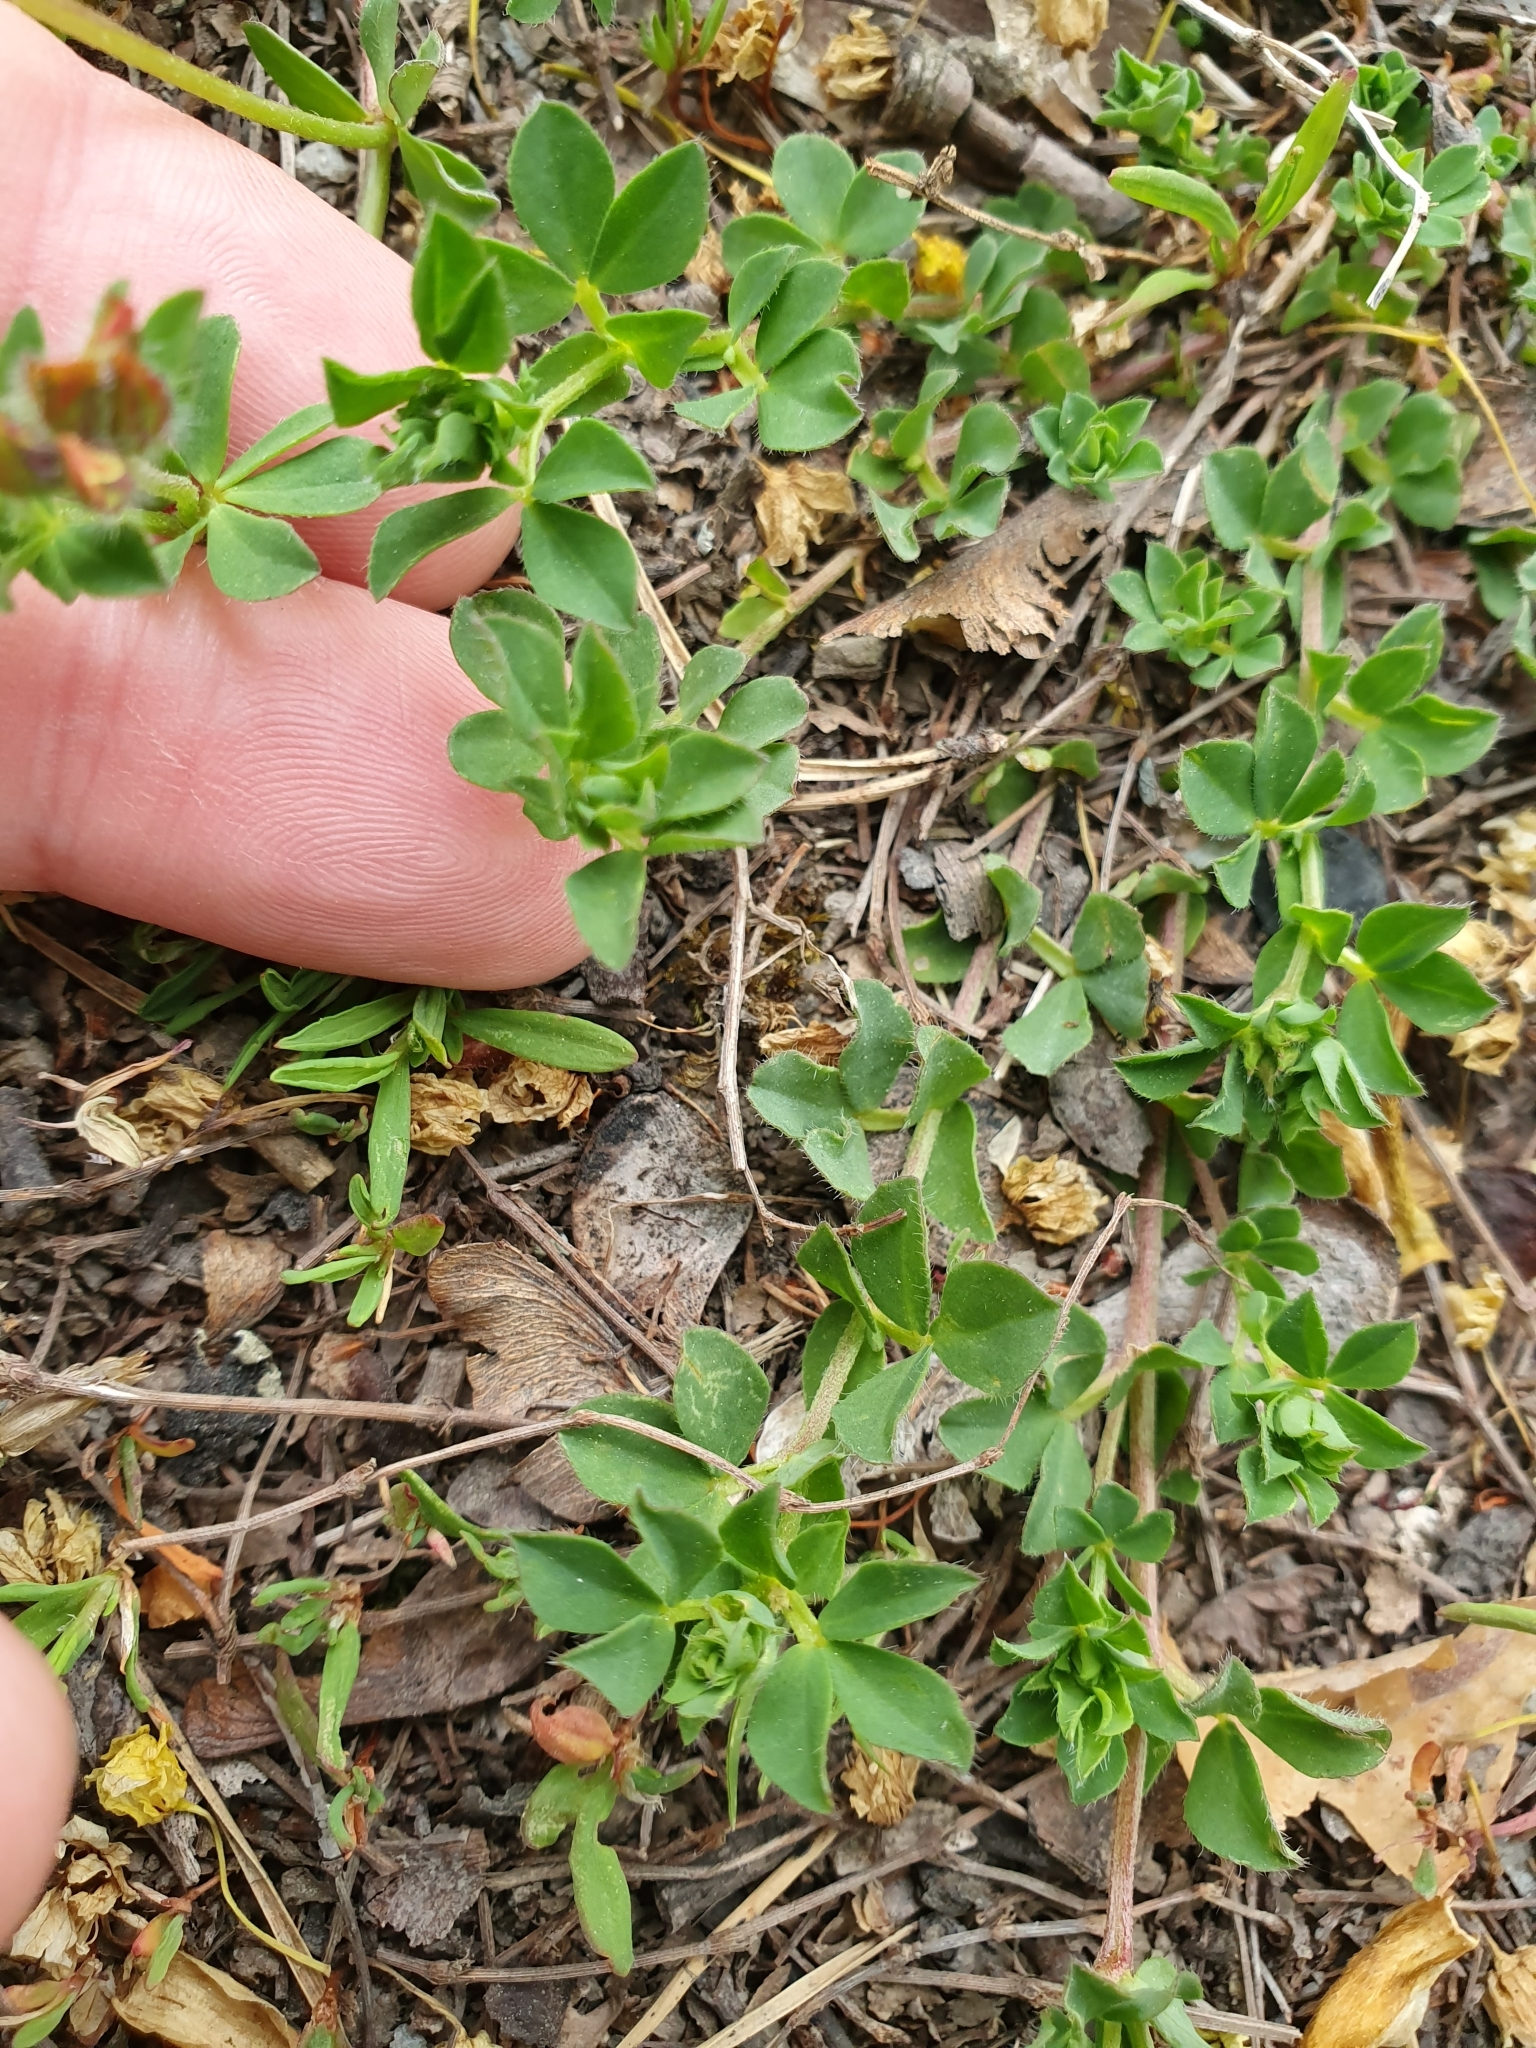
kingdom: Plantae
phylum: Tracheophyta
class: Magnoliopsida
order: Fabales
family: Fabaceae
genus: Lotus
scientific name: Lotus corniculatus
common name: Common bird's-foot-trefoil
